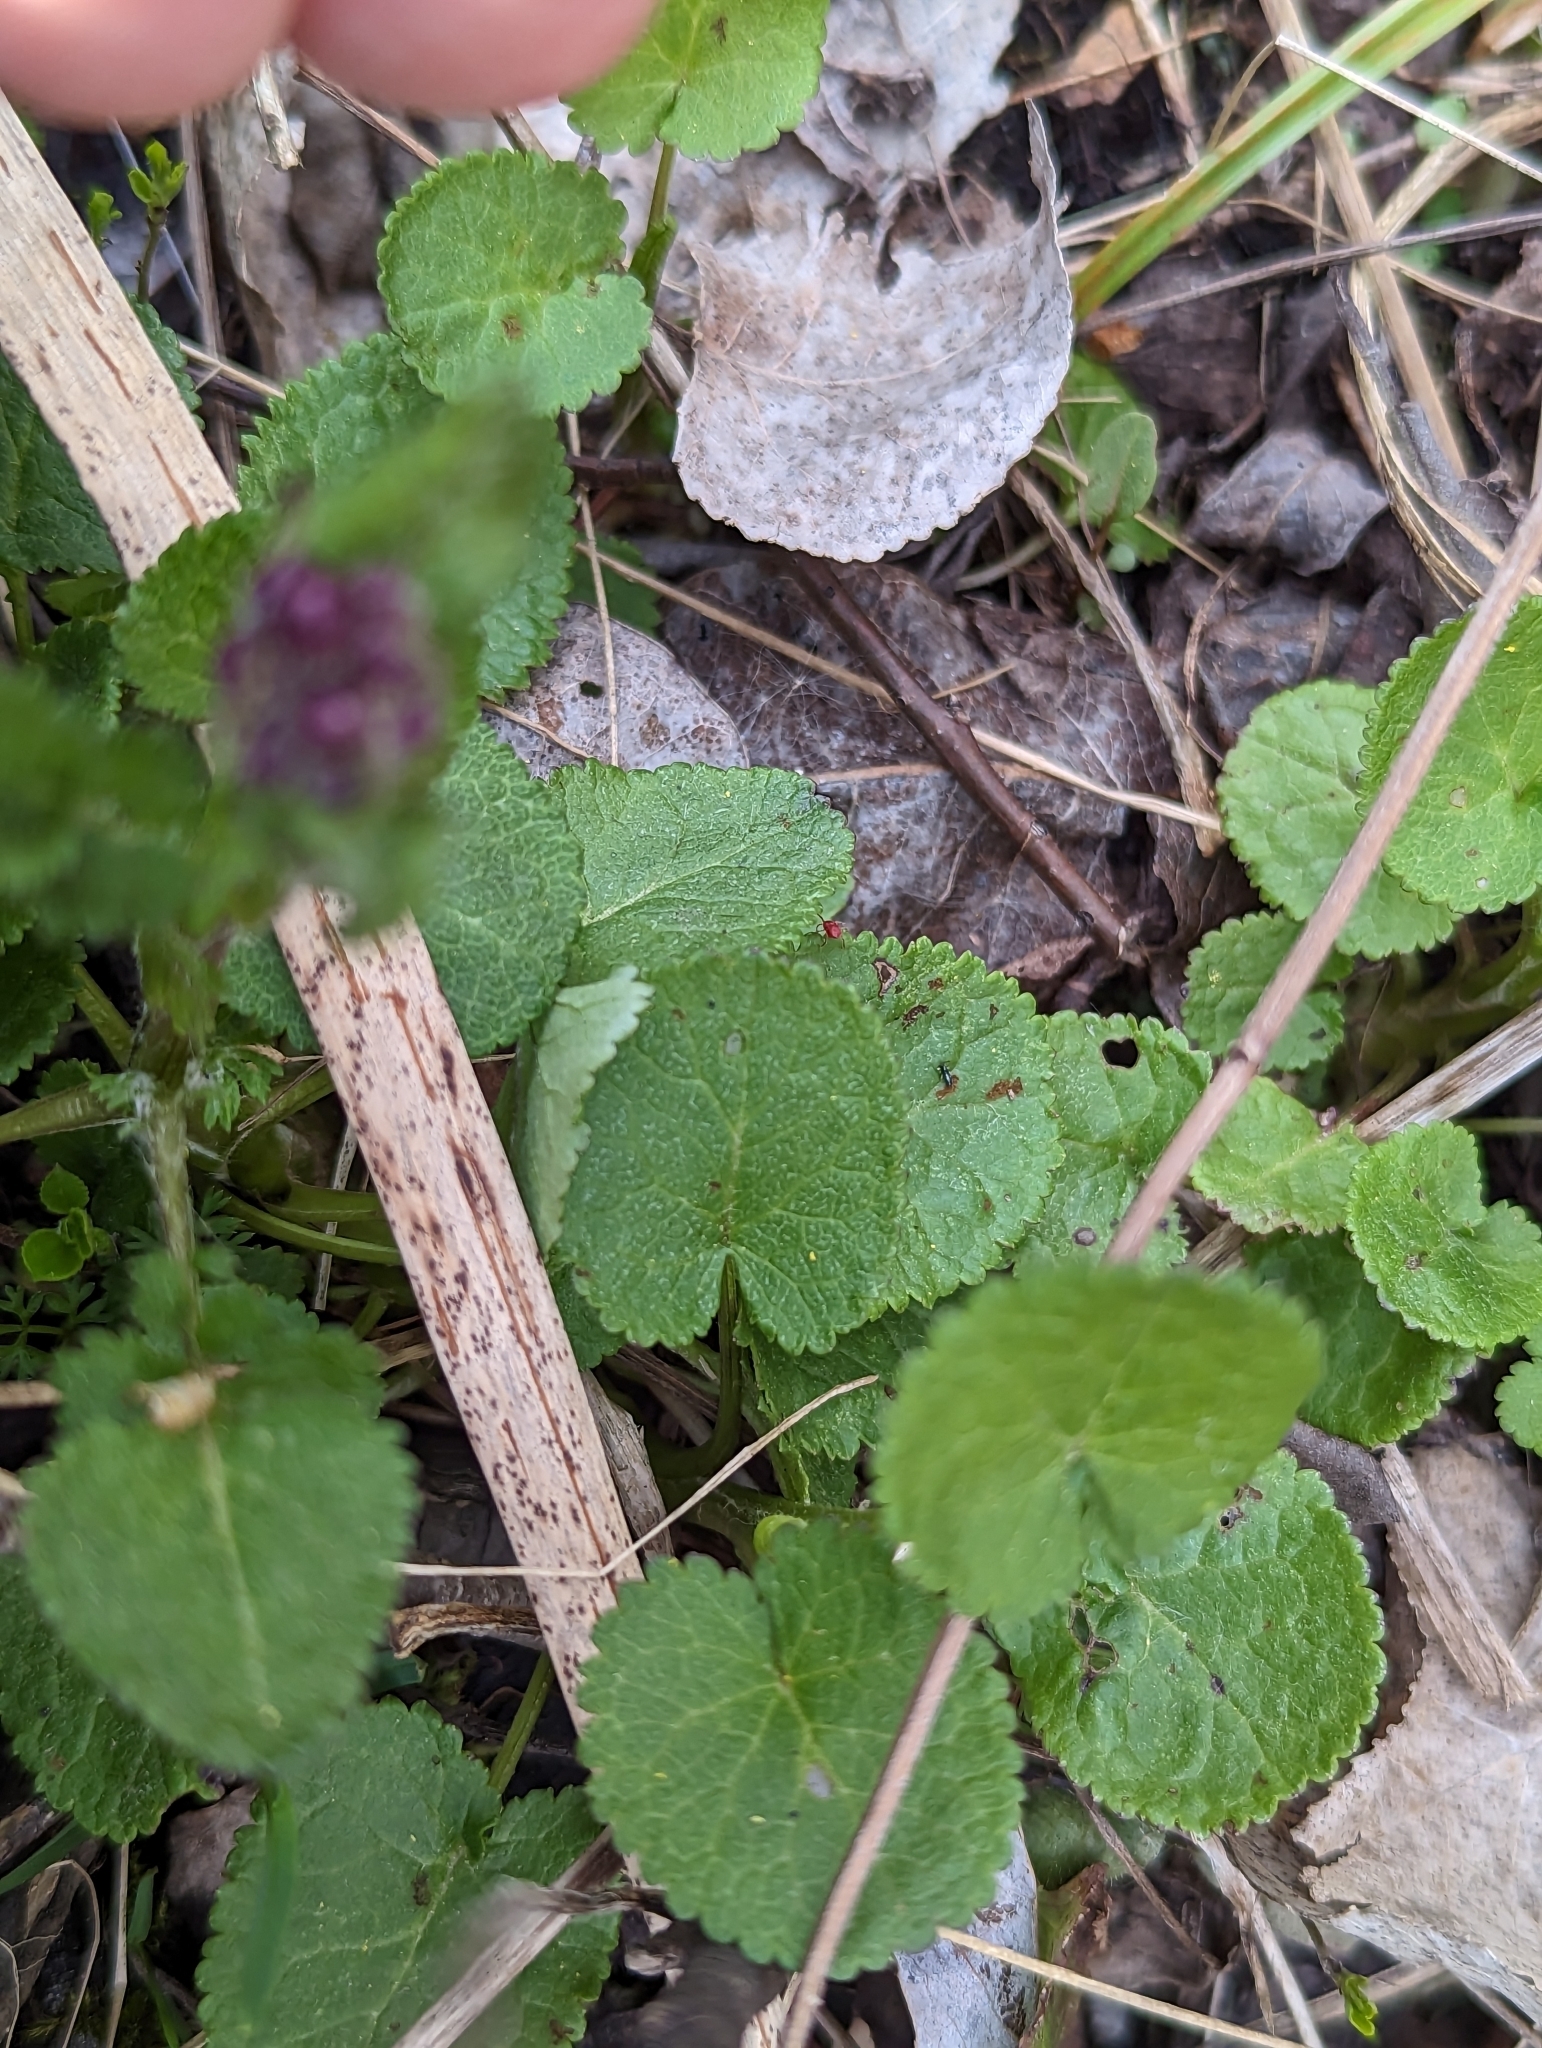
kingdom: Plantae
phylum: Tracheophyta
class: Magnoliopsida
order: Asterales
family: Asteraceae
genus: Packera
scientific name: Packera aurea
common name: Golden groundsel
